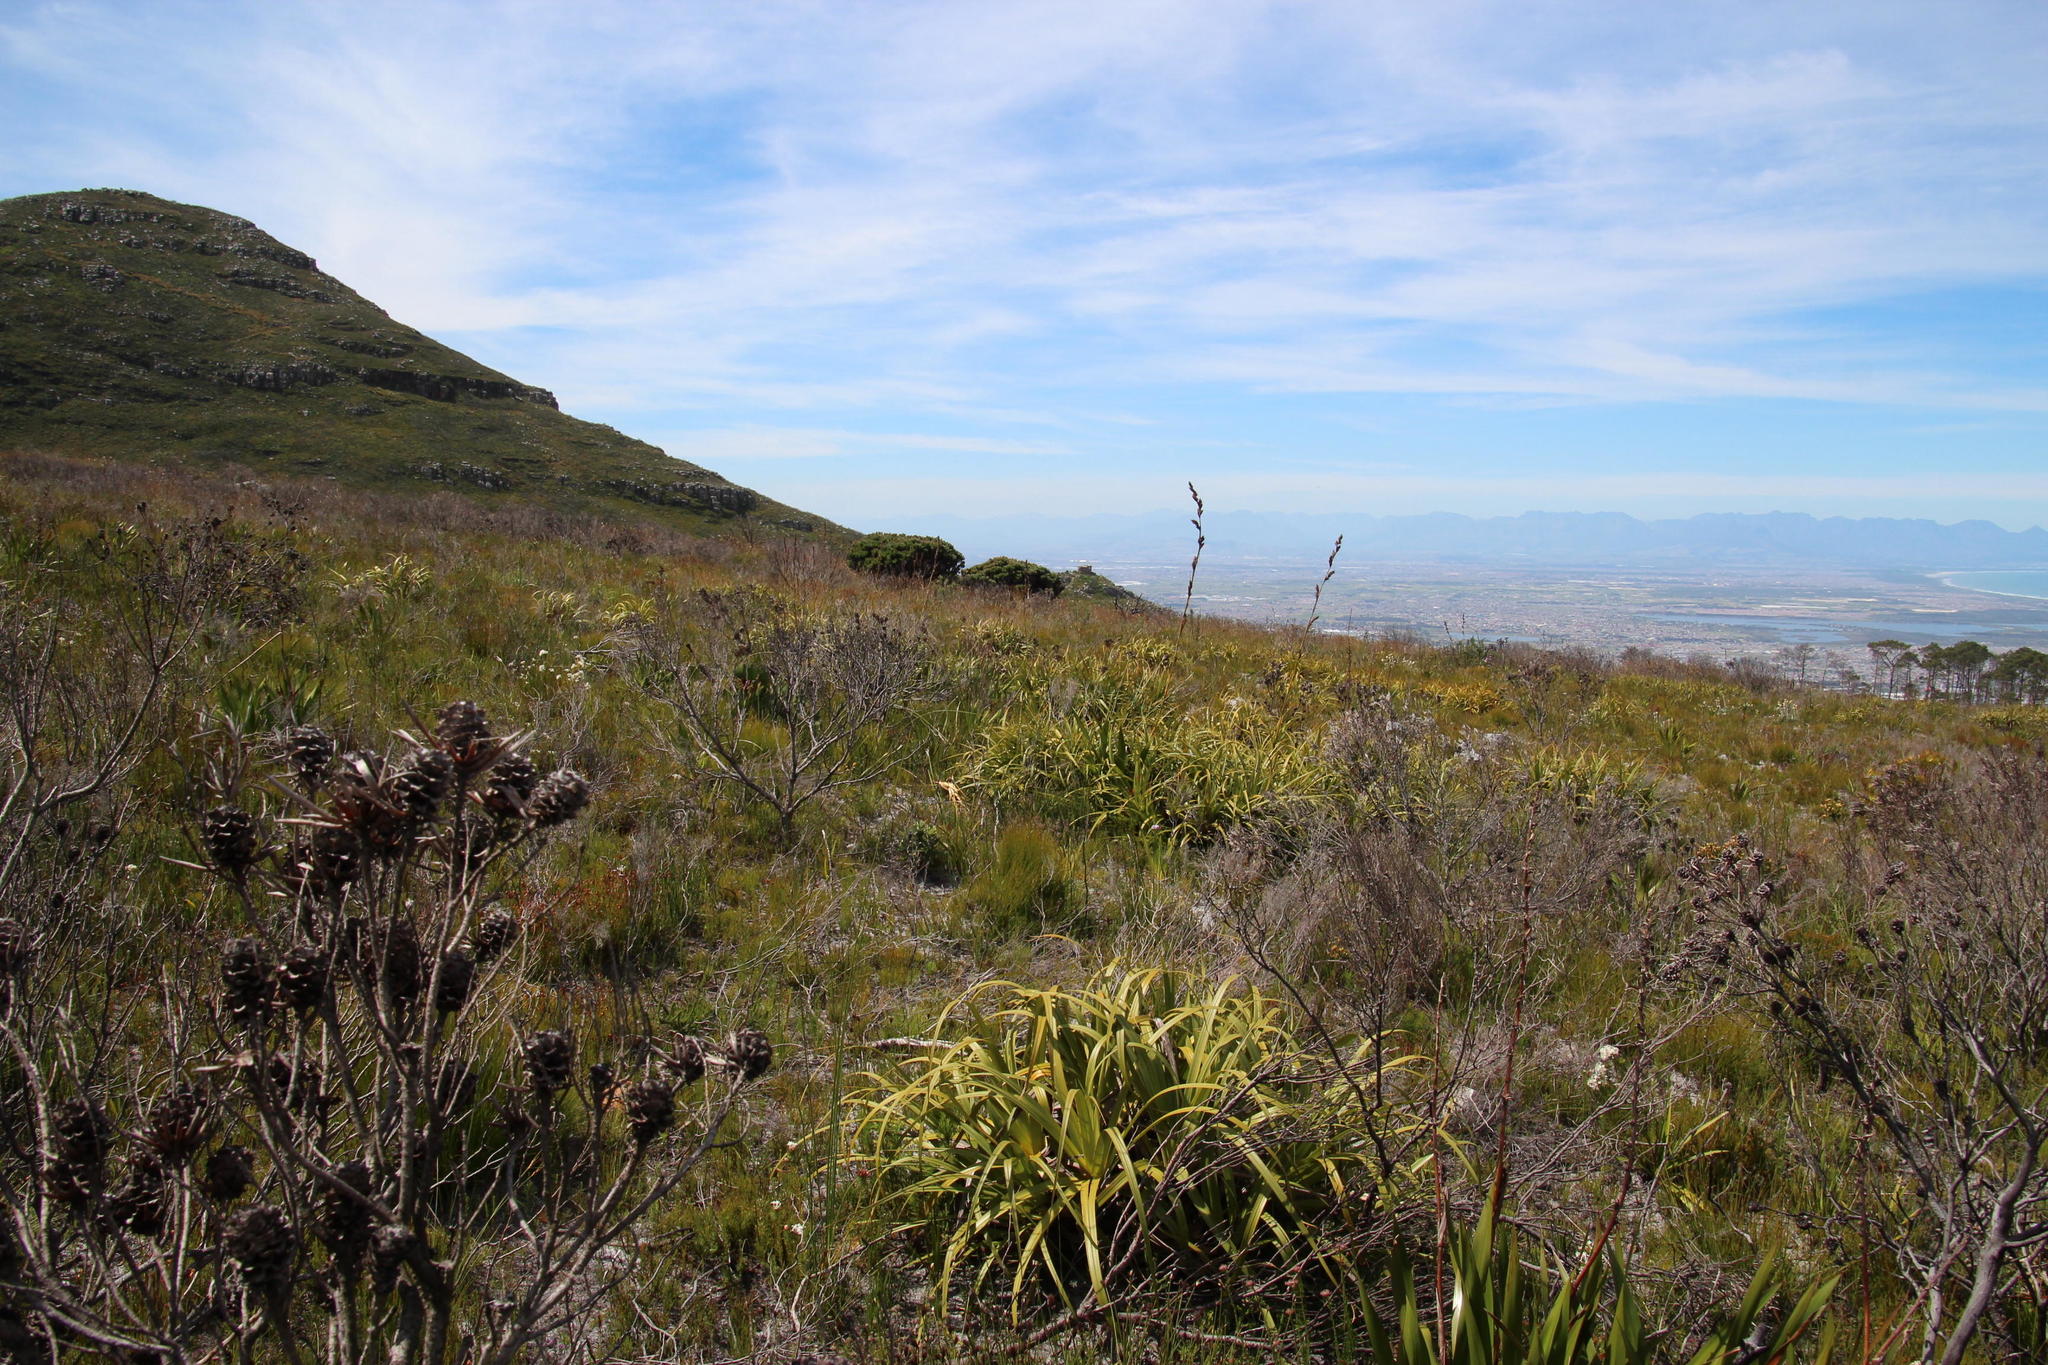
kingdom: Plantae
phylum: Tracheophyta
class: Liliopsida
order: Poales
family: Cyperaceae
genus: Tetraria
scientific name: Tetraria thermalis
